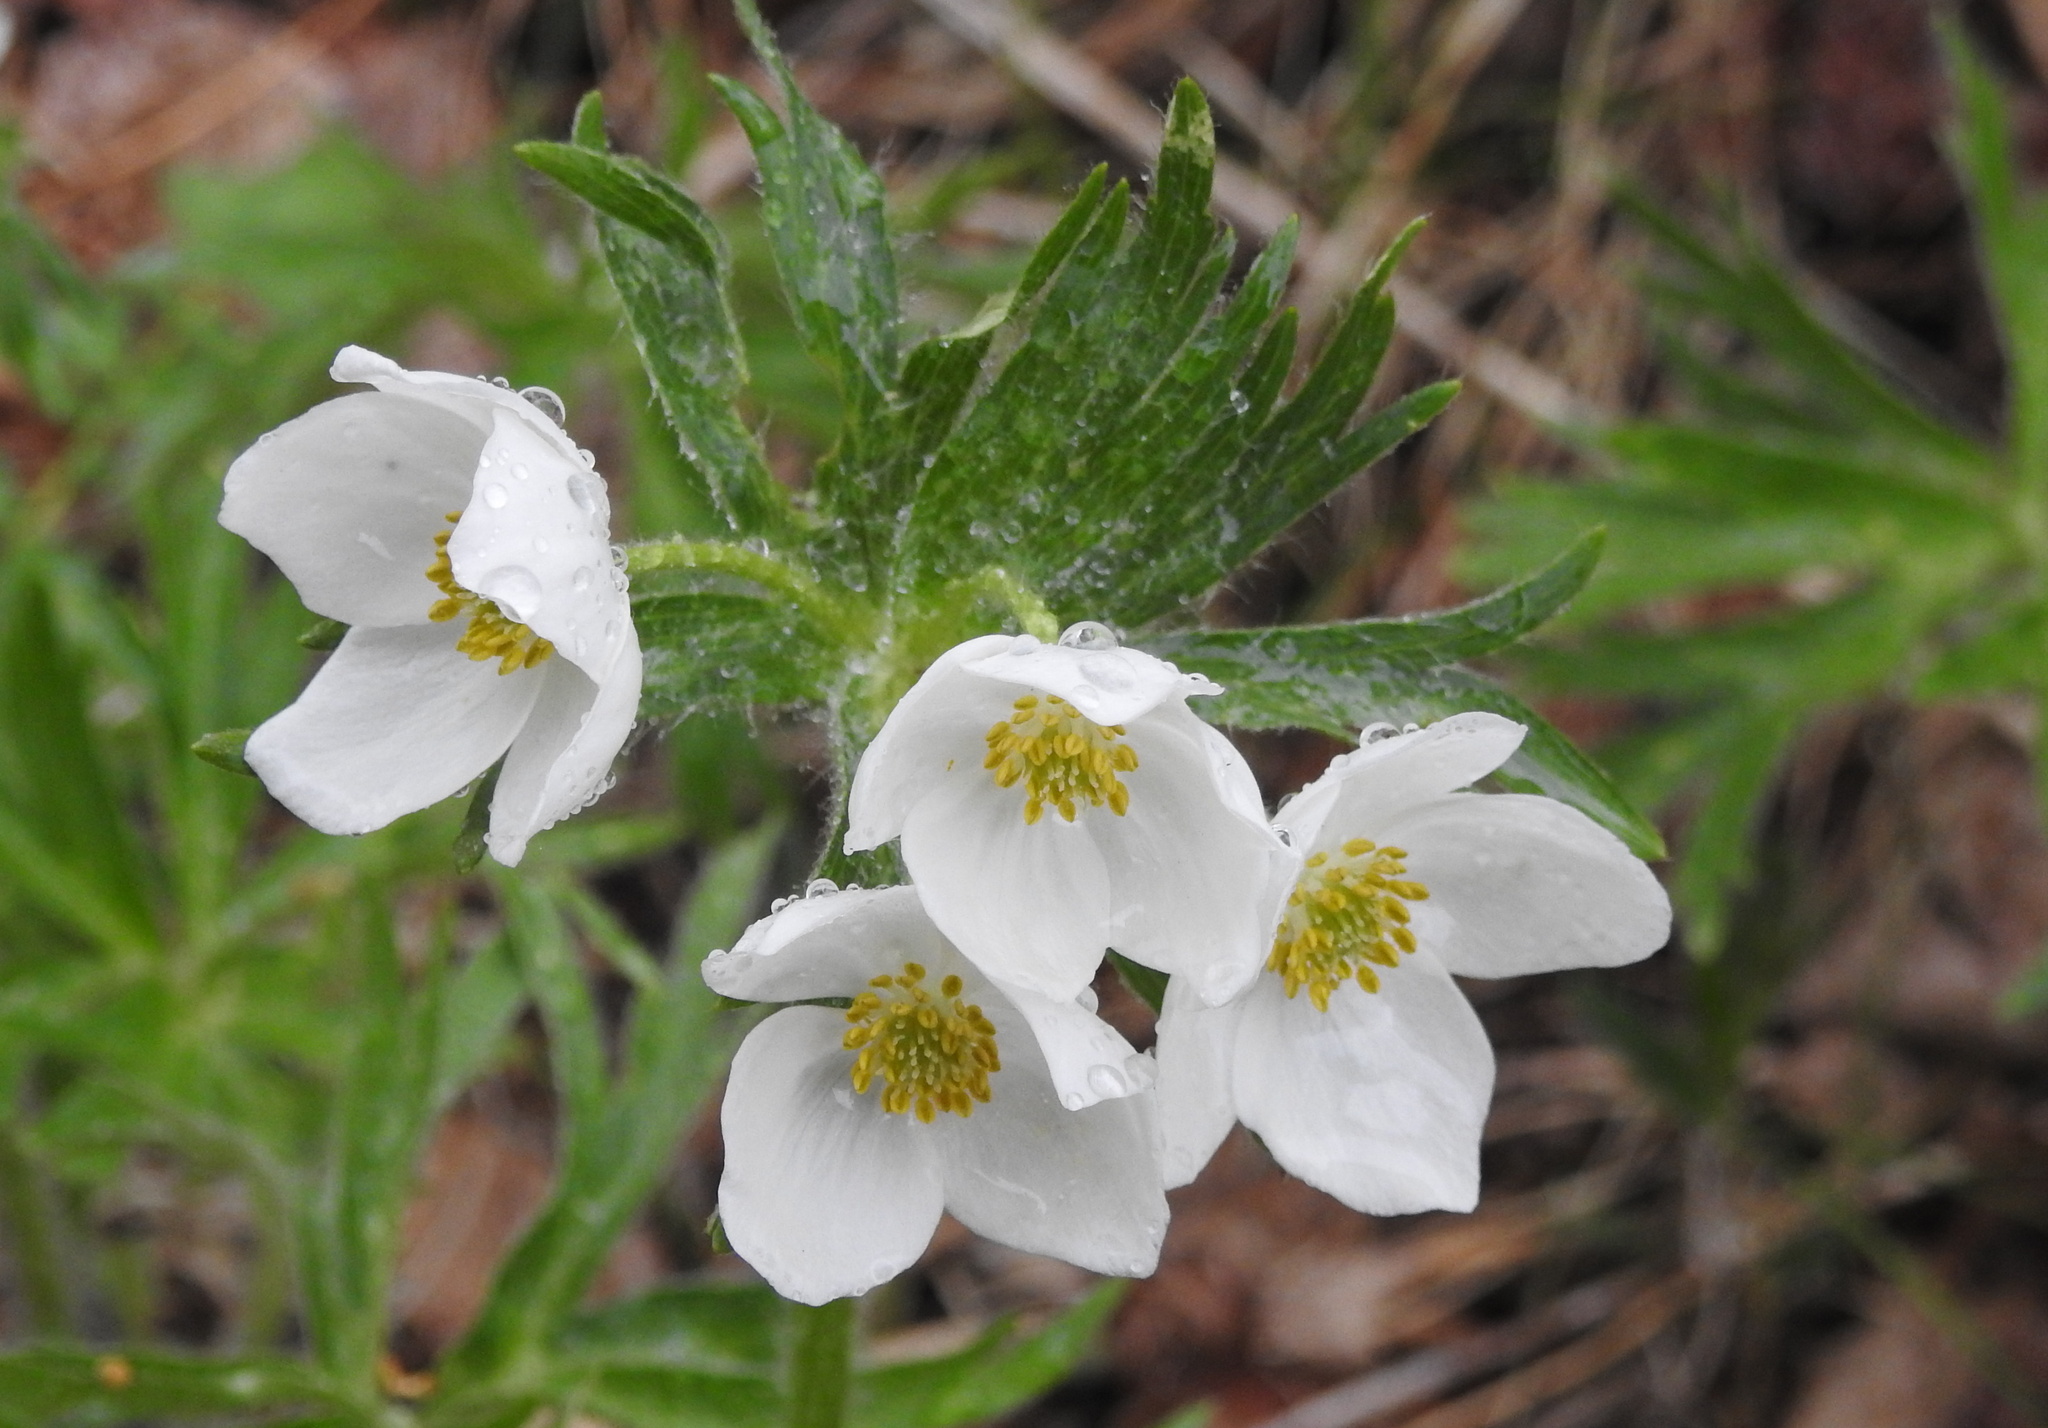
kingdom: Plantae
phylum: Tracheophyta
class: Magnoliopsida
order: Ranunculales
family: Ranunculaceae
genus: Anemonastrum
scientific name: Anemonastrum narcissiflorum
